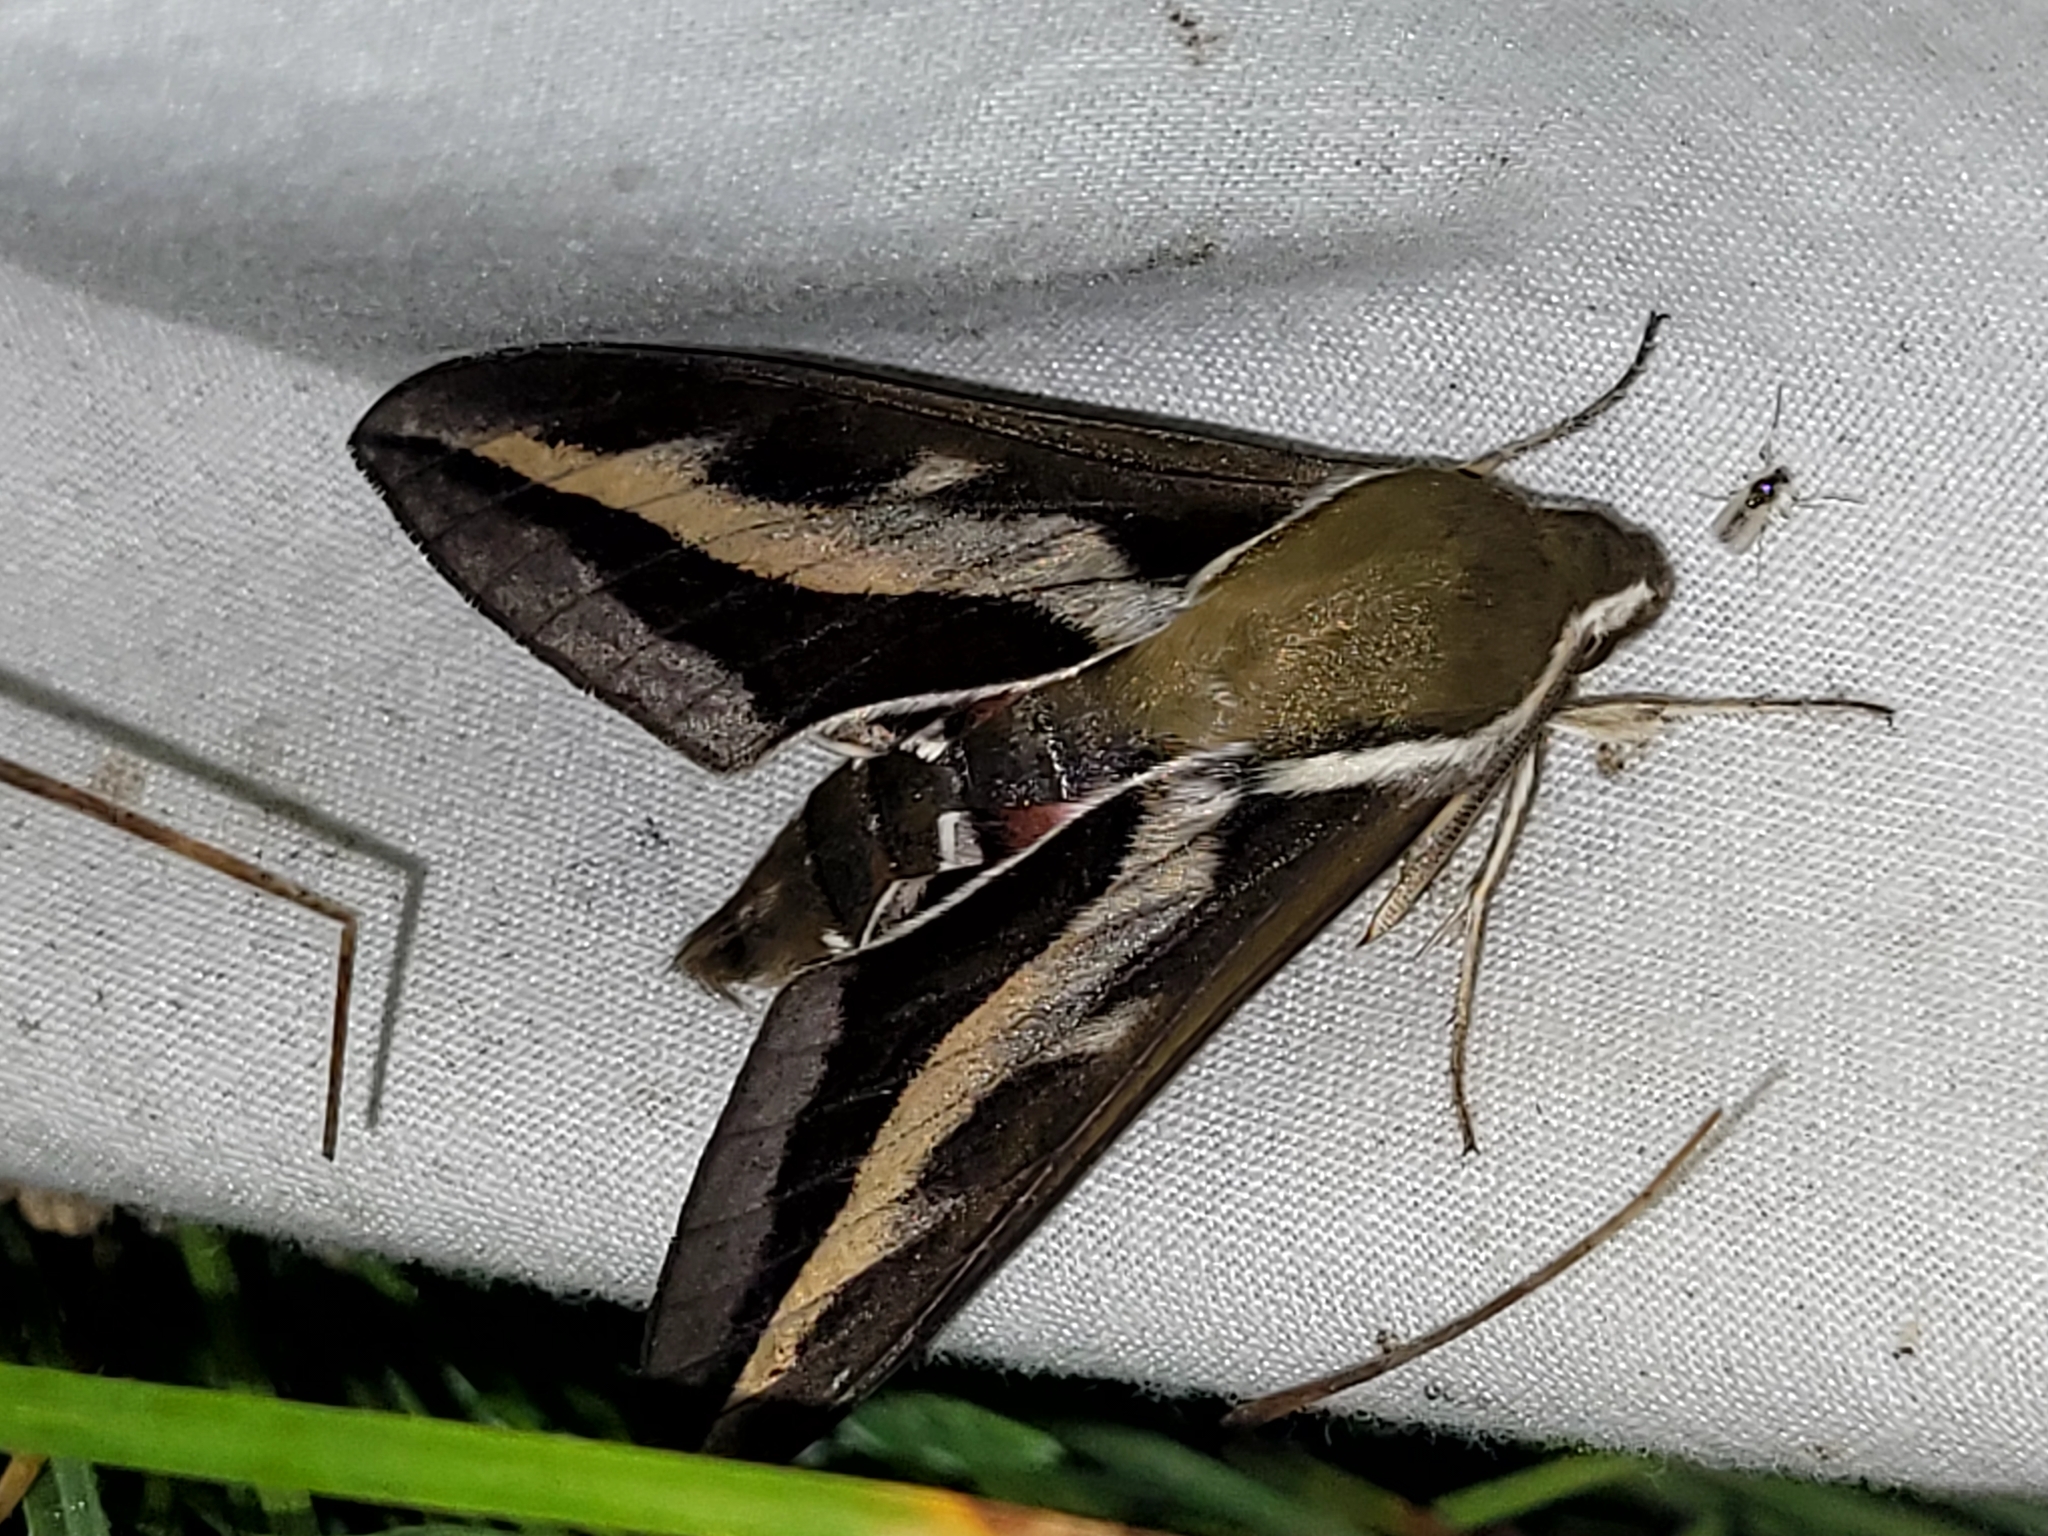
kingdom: Animalia
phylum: Arthropoda
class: Insecta
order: Lepidoptera
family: Sphingidae
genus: Hyles
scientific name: Hyles gallii
